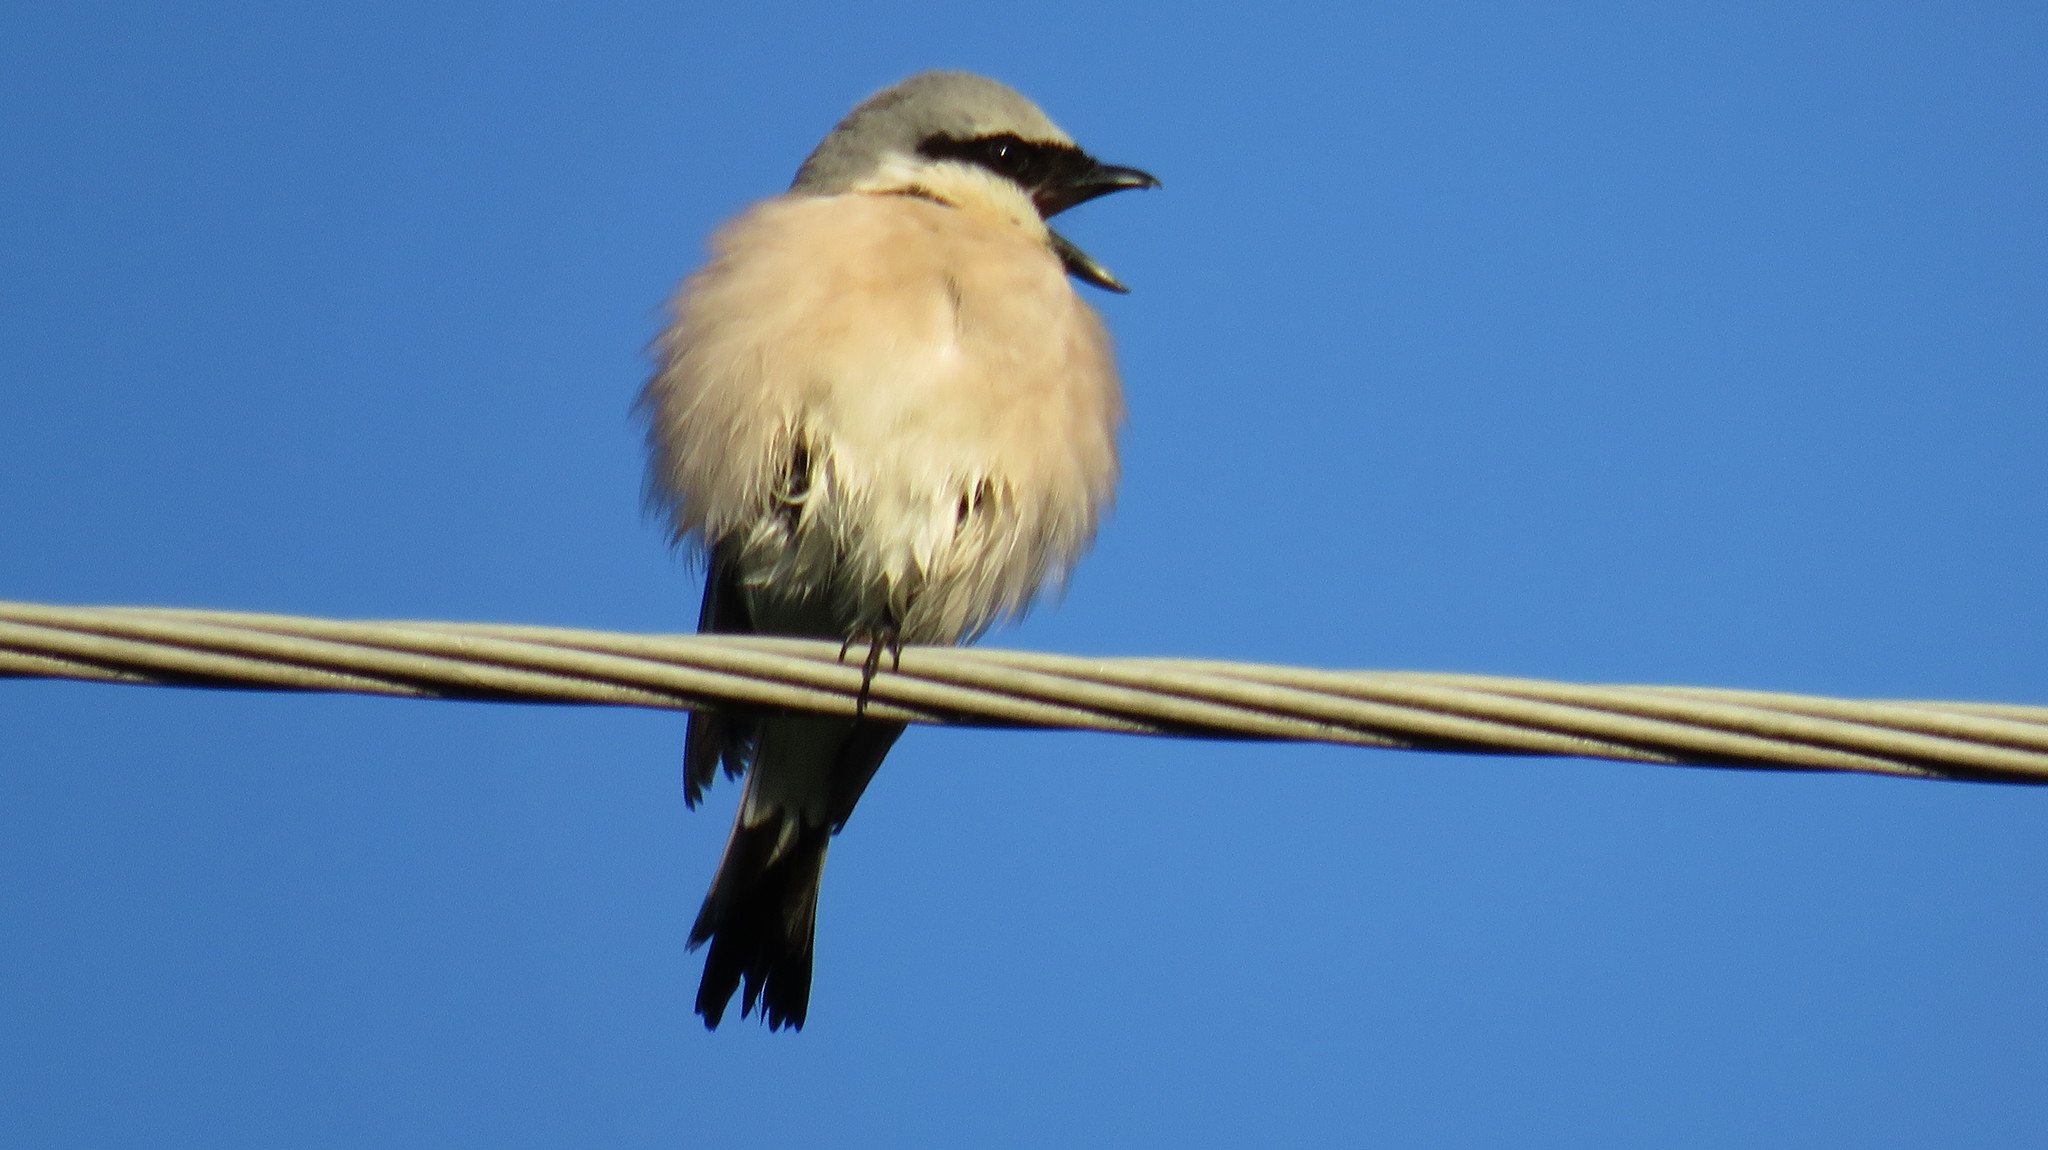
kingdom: Animalia
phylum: Chordata
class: Aves
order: Passeriformes
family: Laniidae
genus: Lanius
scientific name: Lanius collurio
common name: Red-backed shrike
